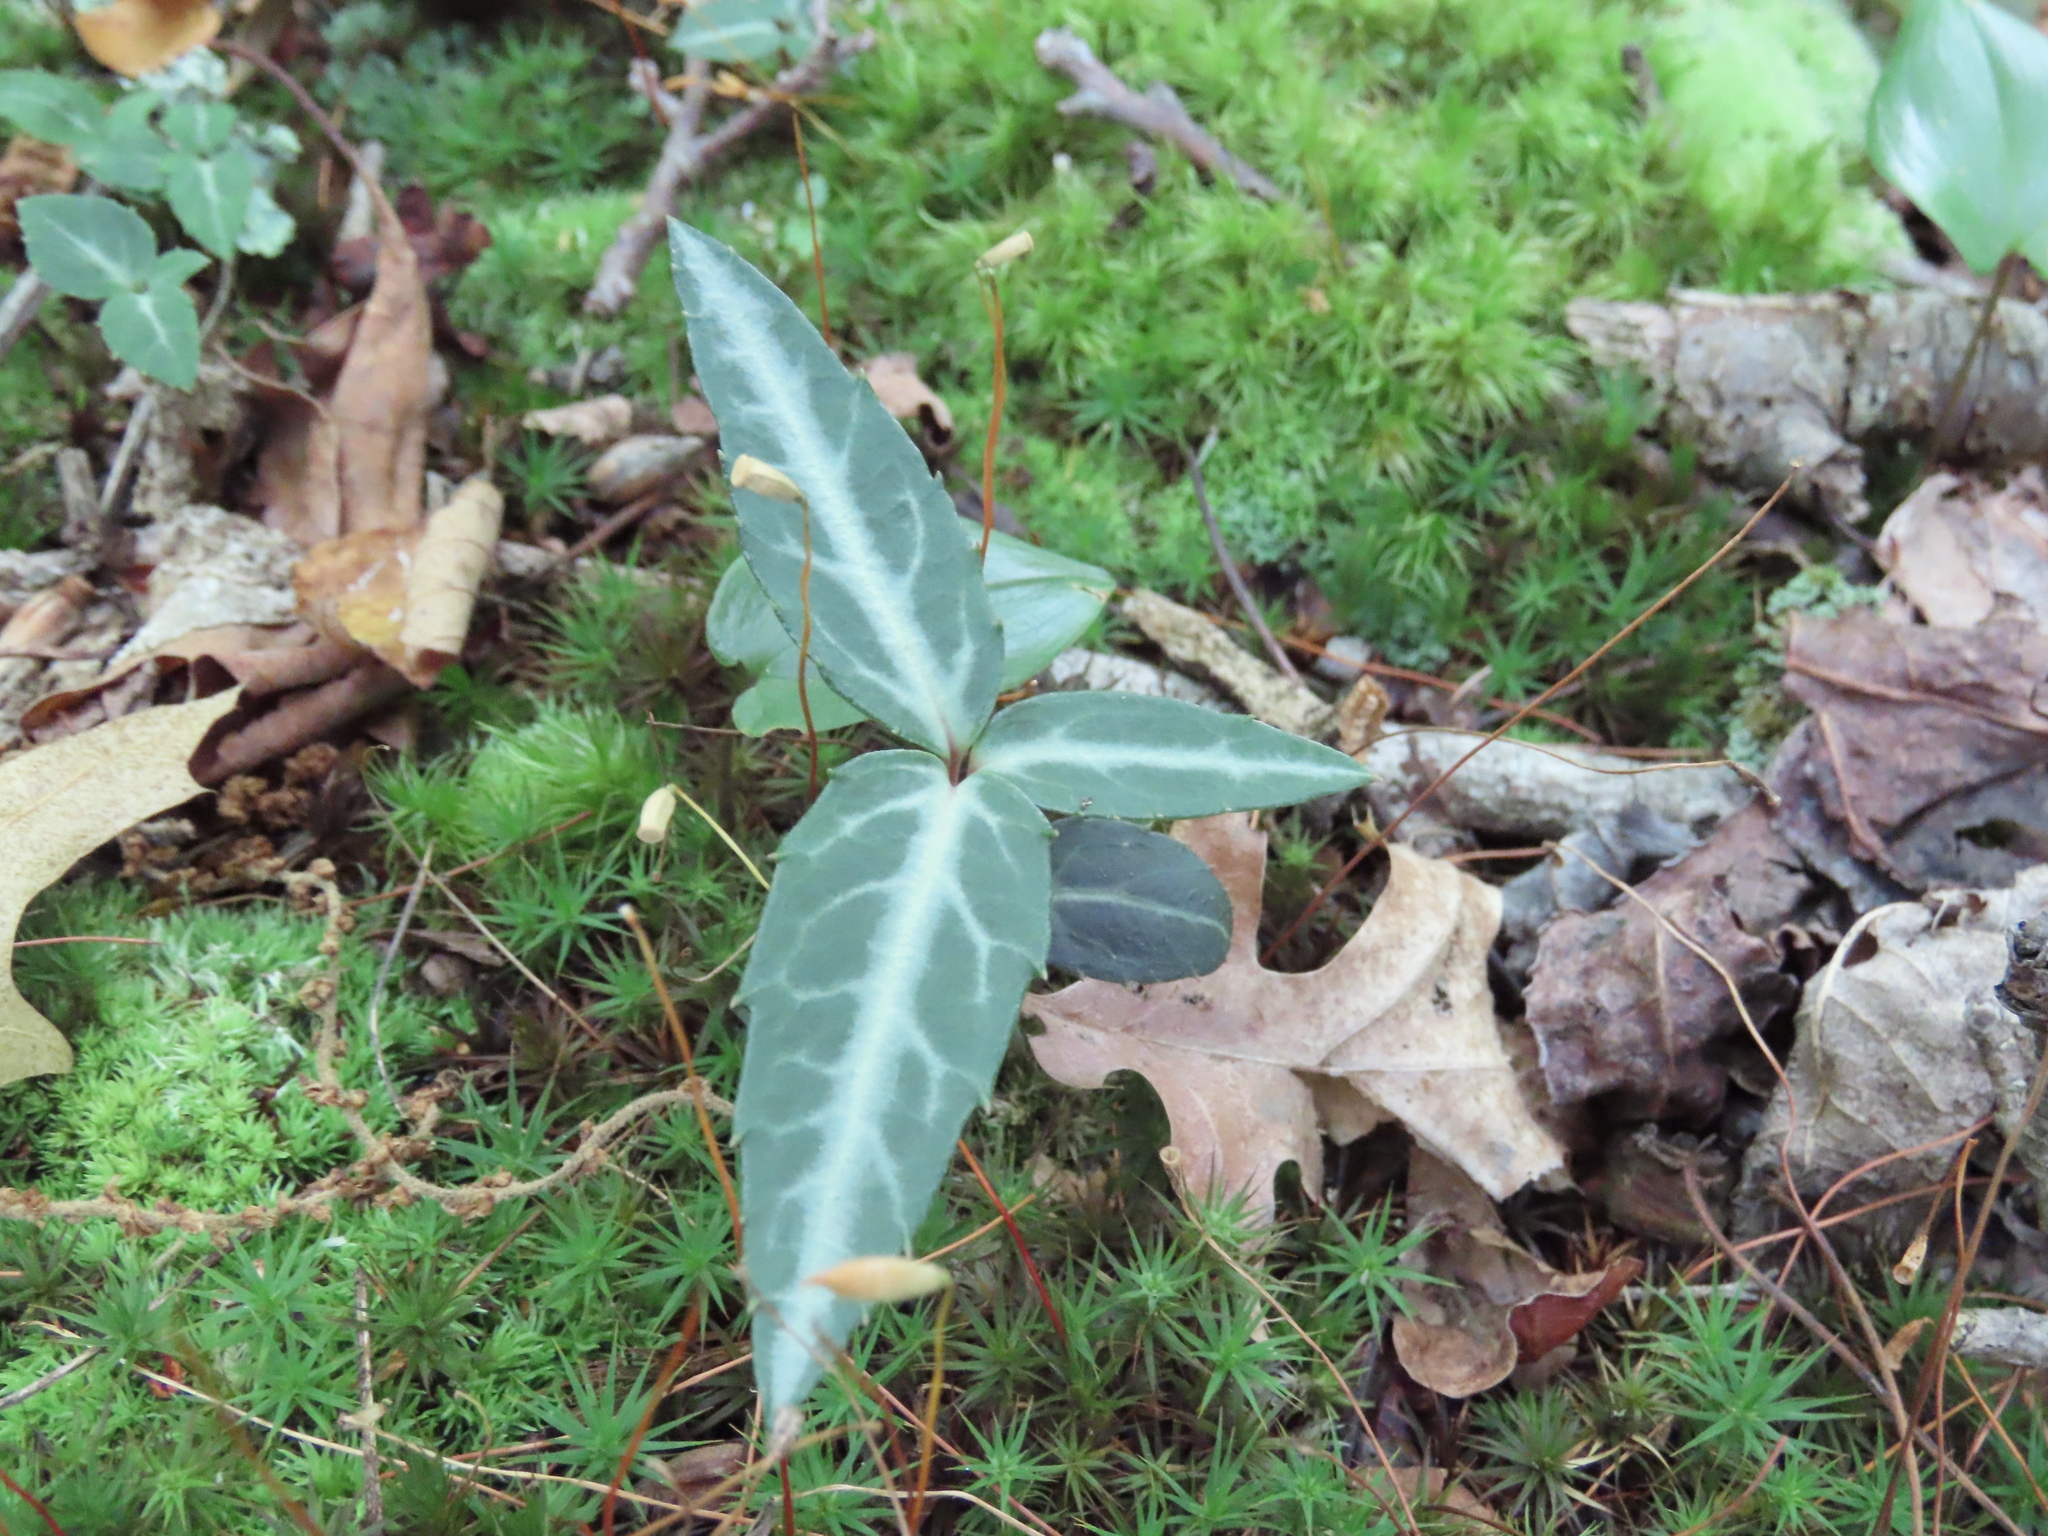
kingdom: Plantae
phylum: Tracheophyta
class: Magnoliopsida
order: Ericales
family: Ericaceae
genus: Chimaphila
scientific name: Chimaphila maculata
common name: Spotted pipsissewa
